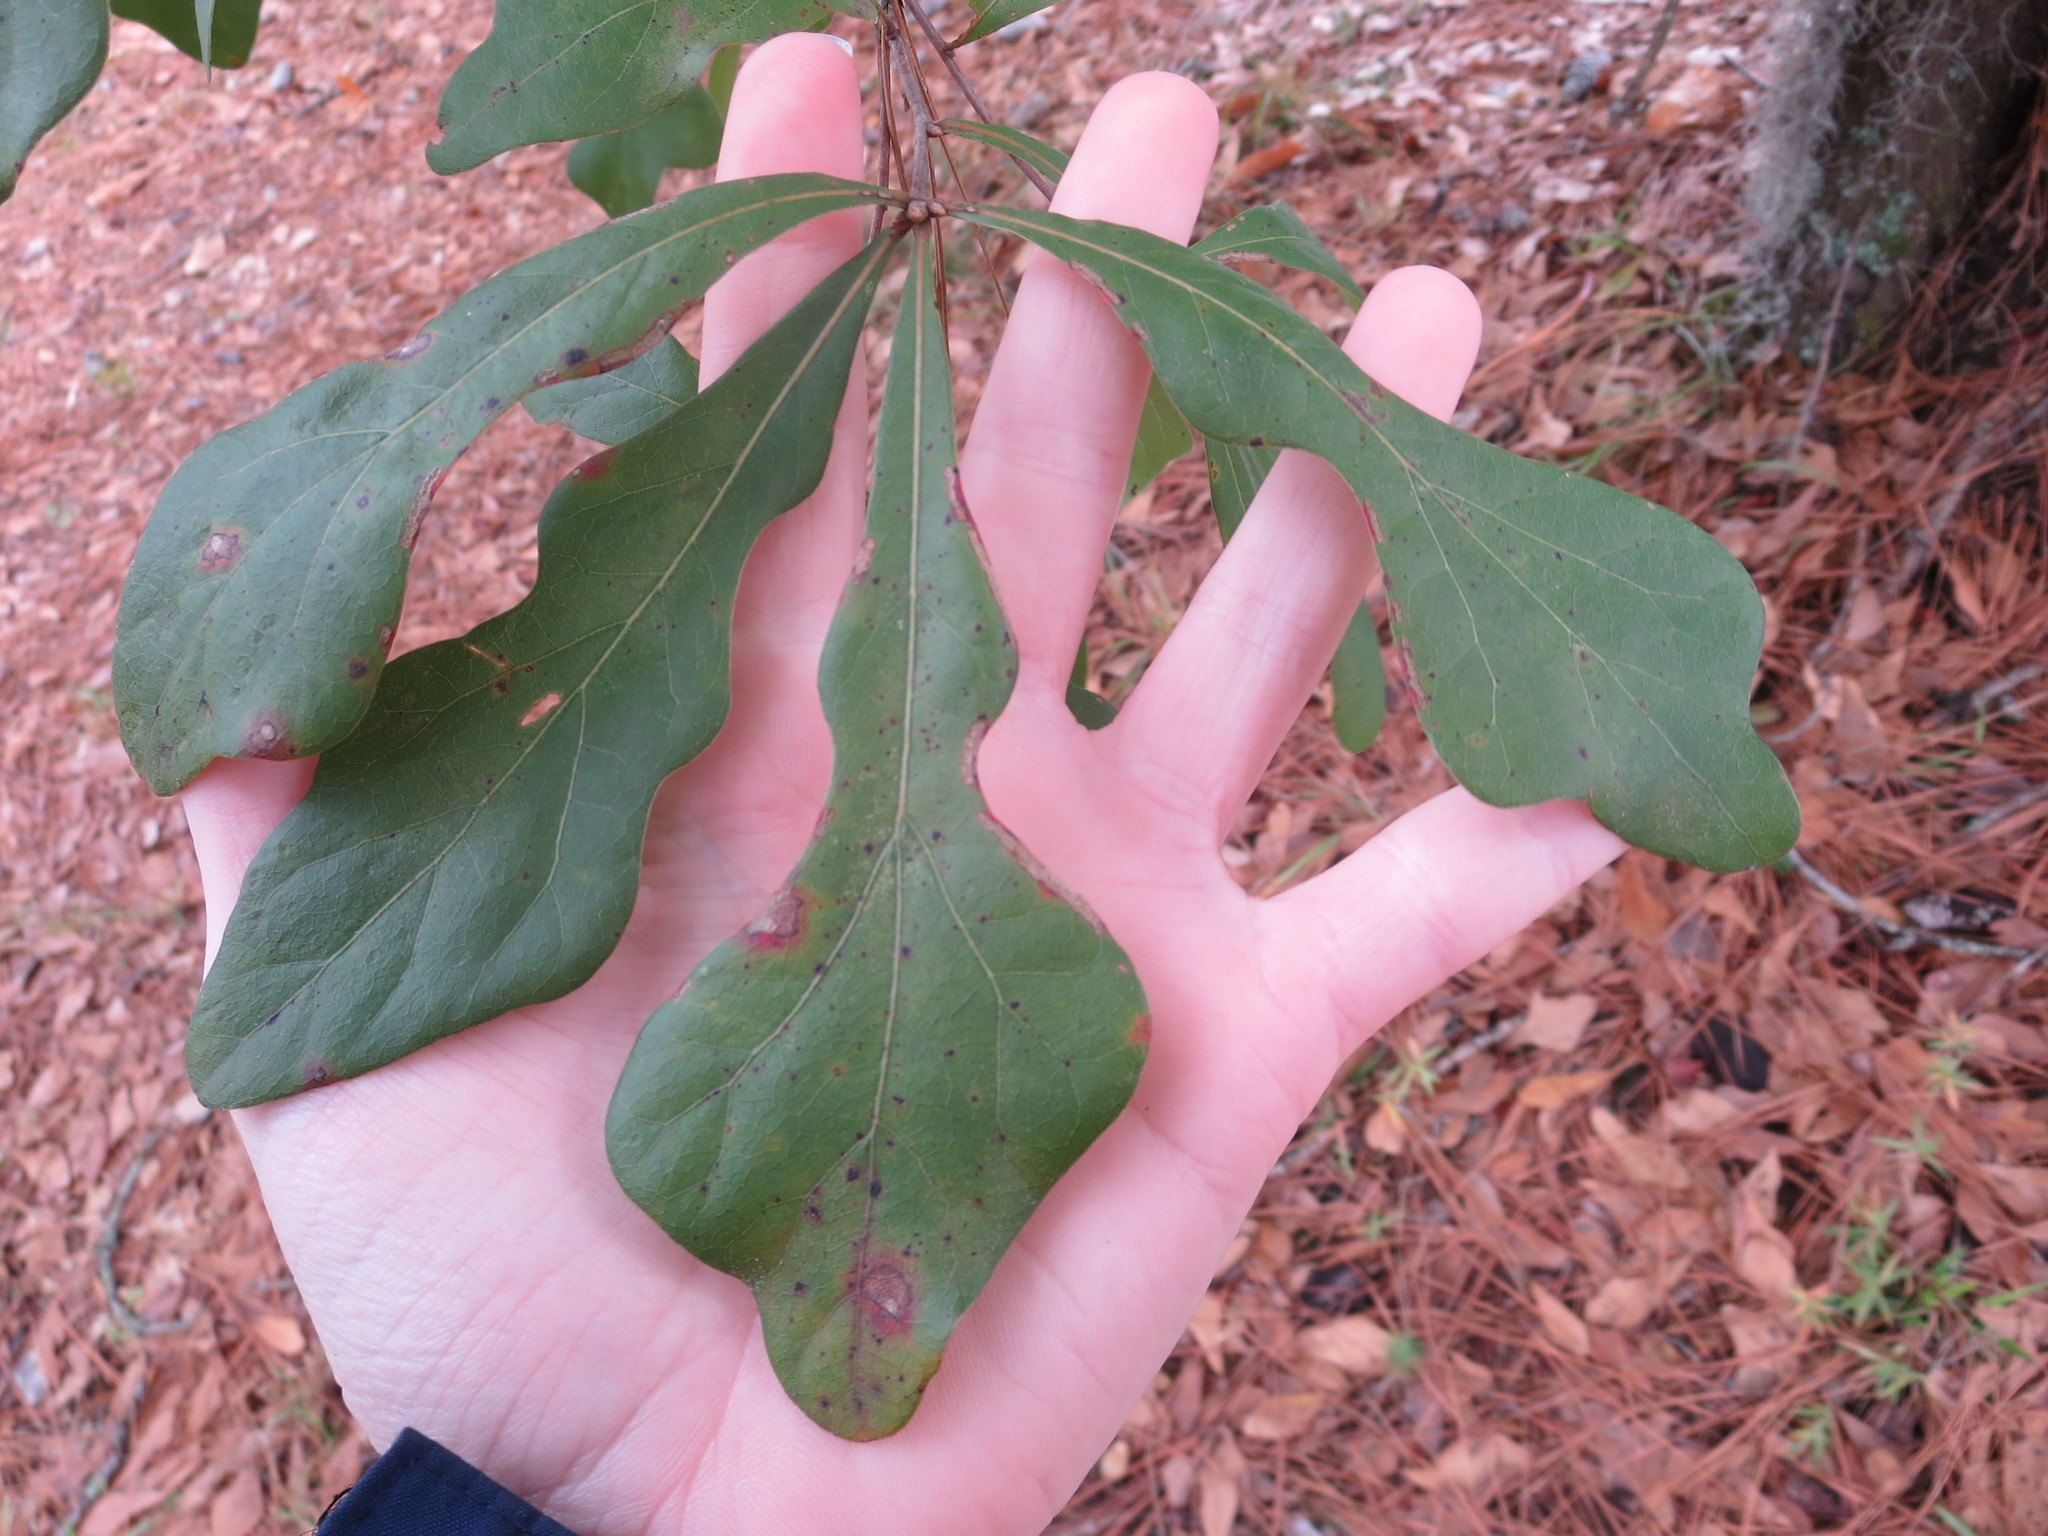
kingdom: Plantae
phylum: Tracheophyta
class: Magnoliopsida
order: Fagales
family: Fagaceae
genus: Quercus
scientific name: Quercus nigra
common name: Water oak
